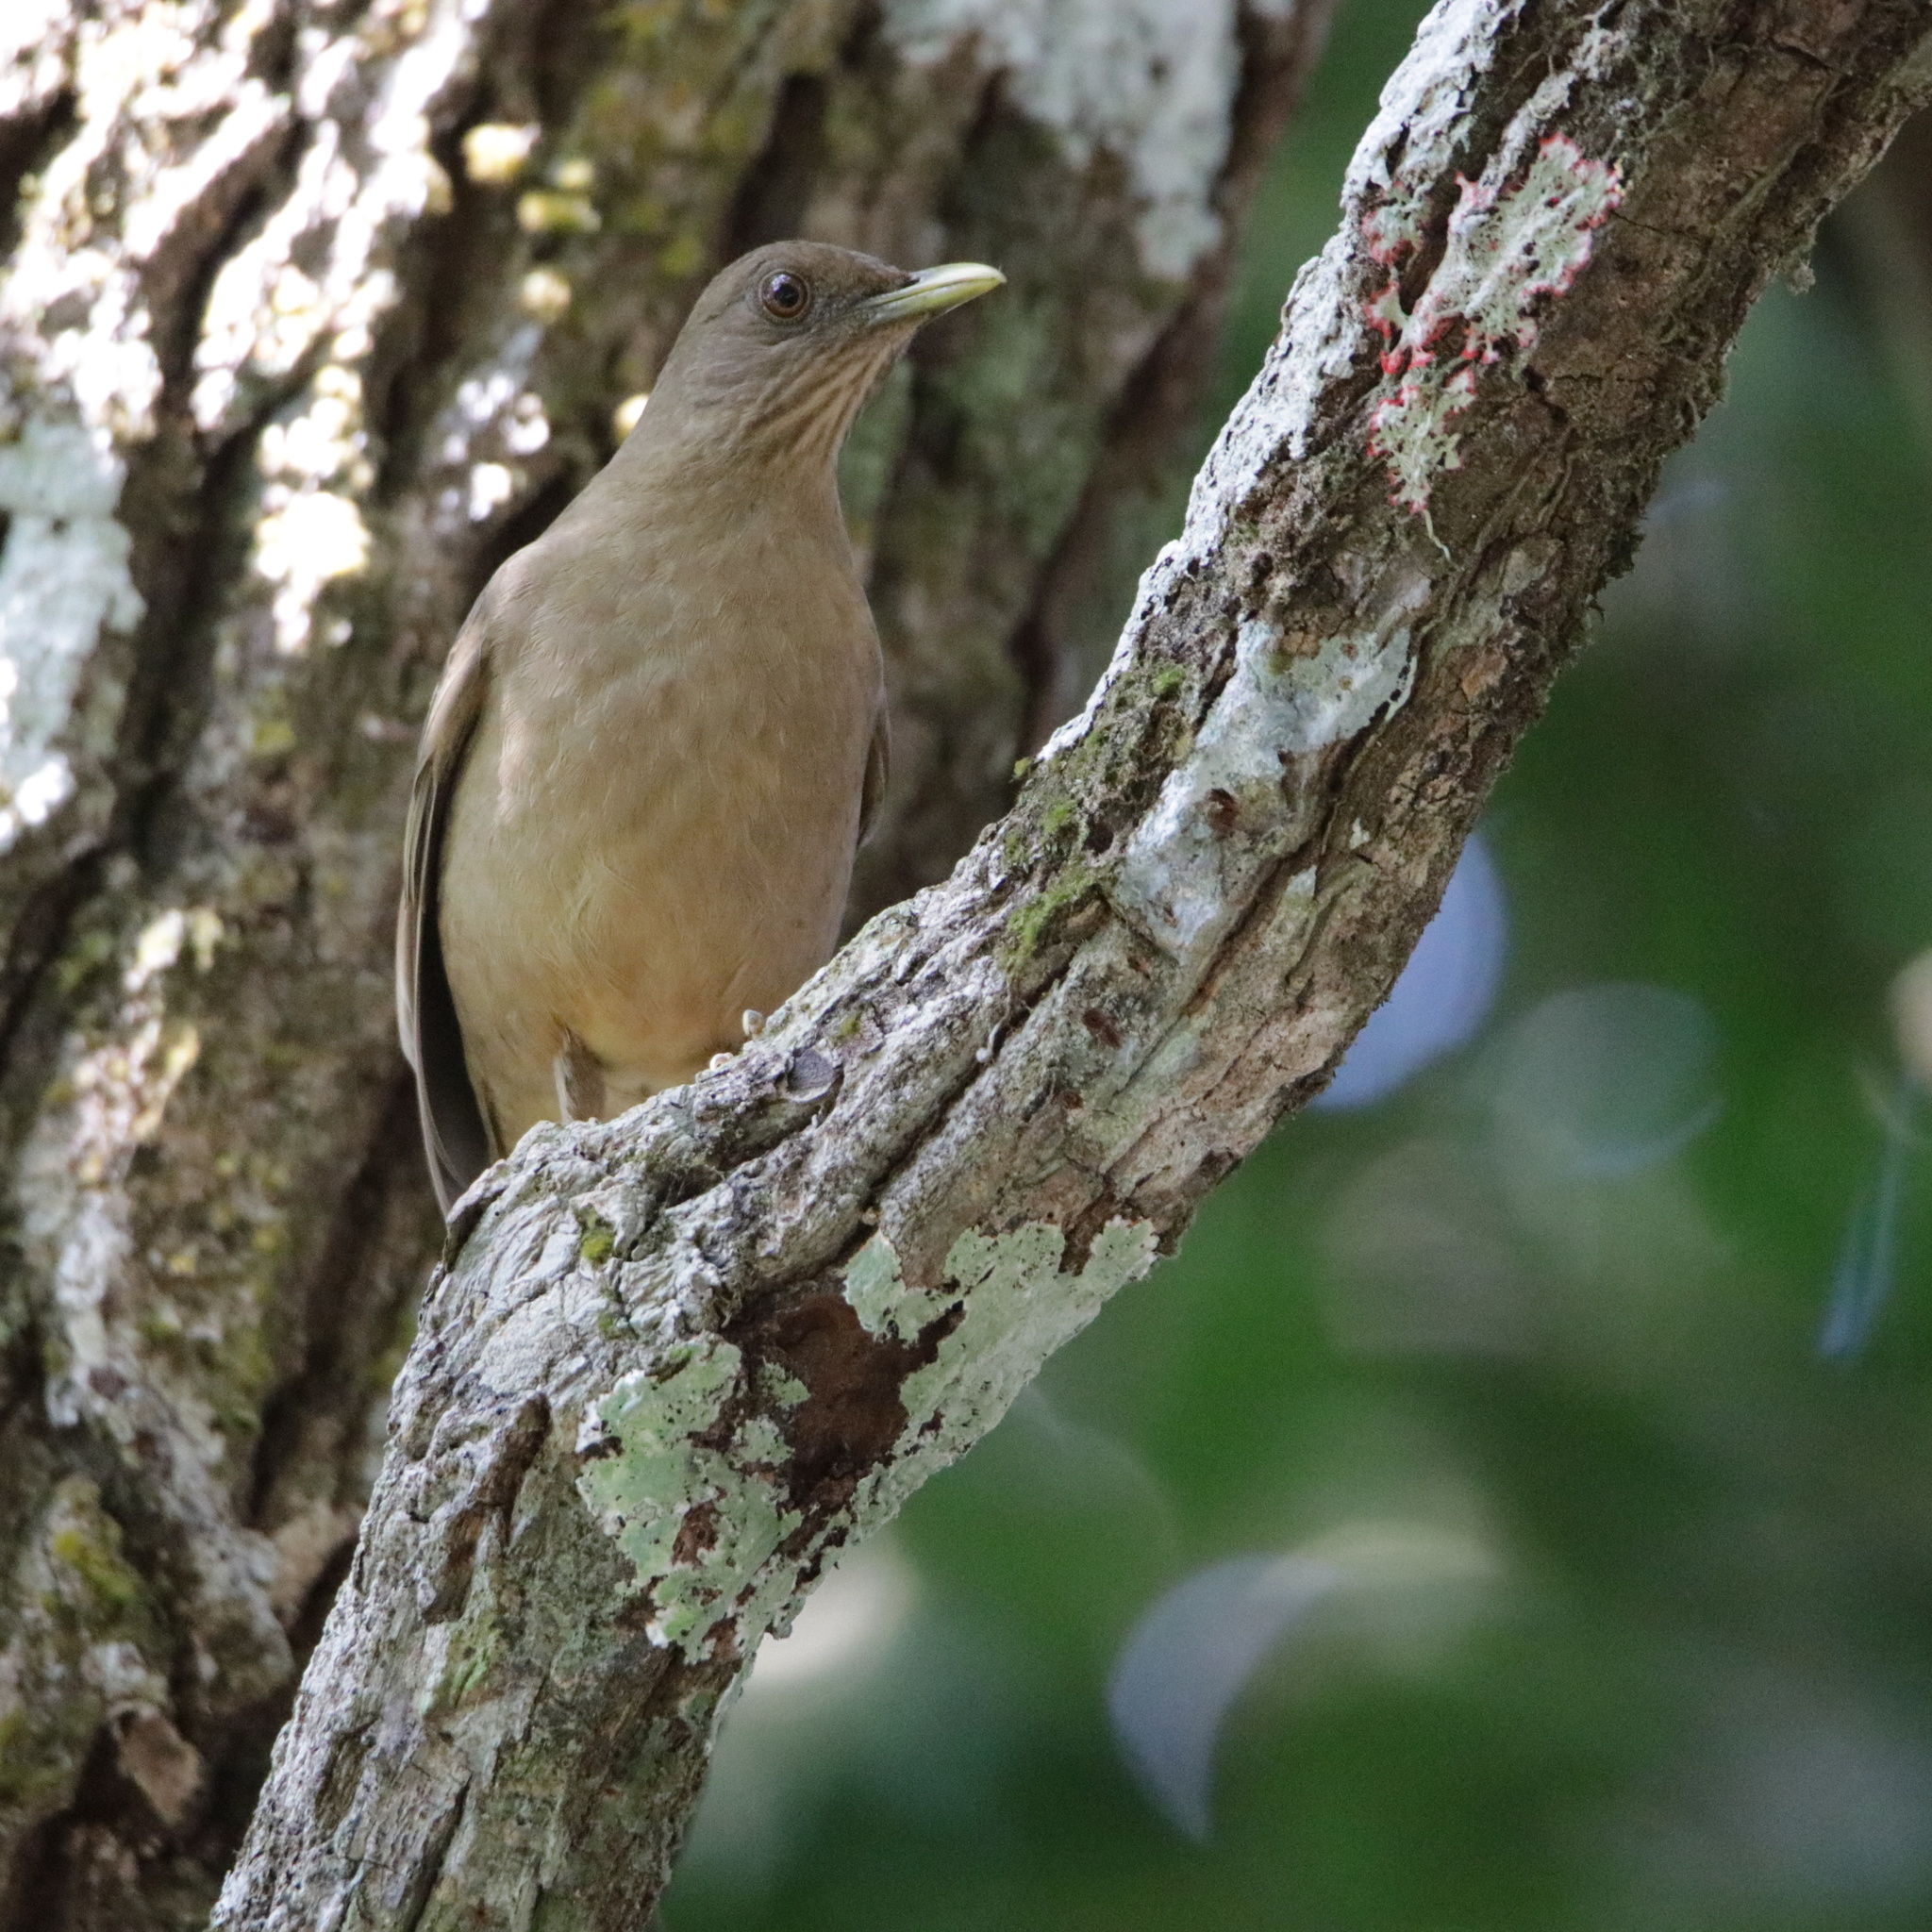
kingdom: Animalia
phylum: Chordata
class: Aves
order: Passeriformes
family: Turdidae
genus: Turdus
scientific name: Turdus grayi
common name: Clay-colored thrush
